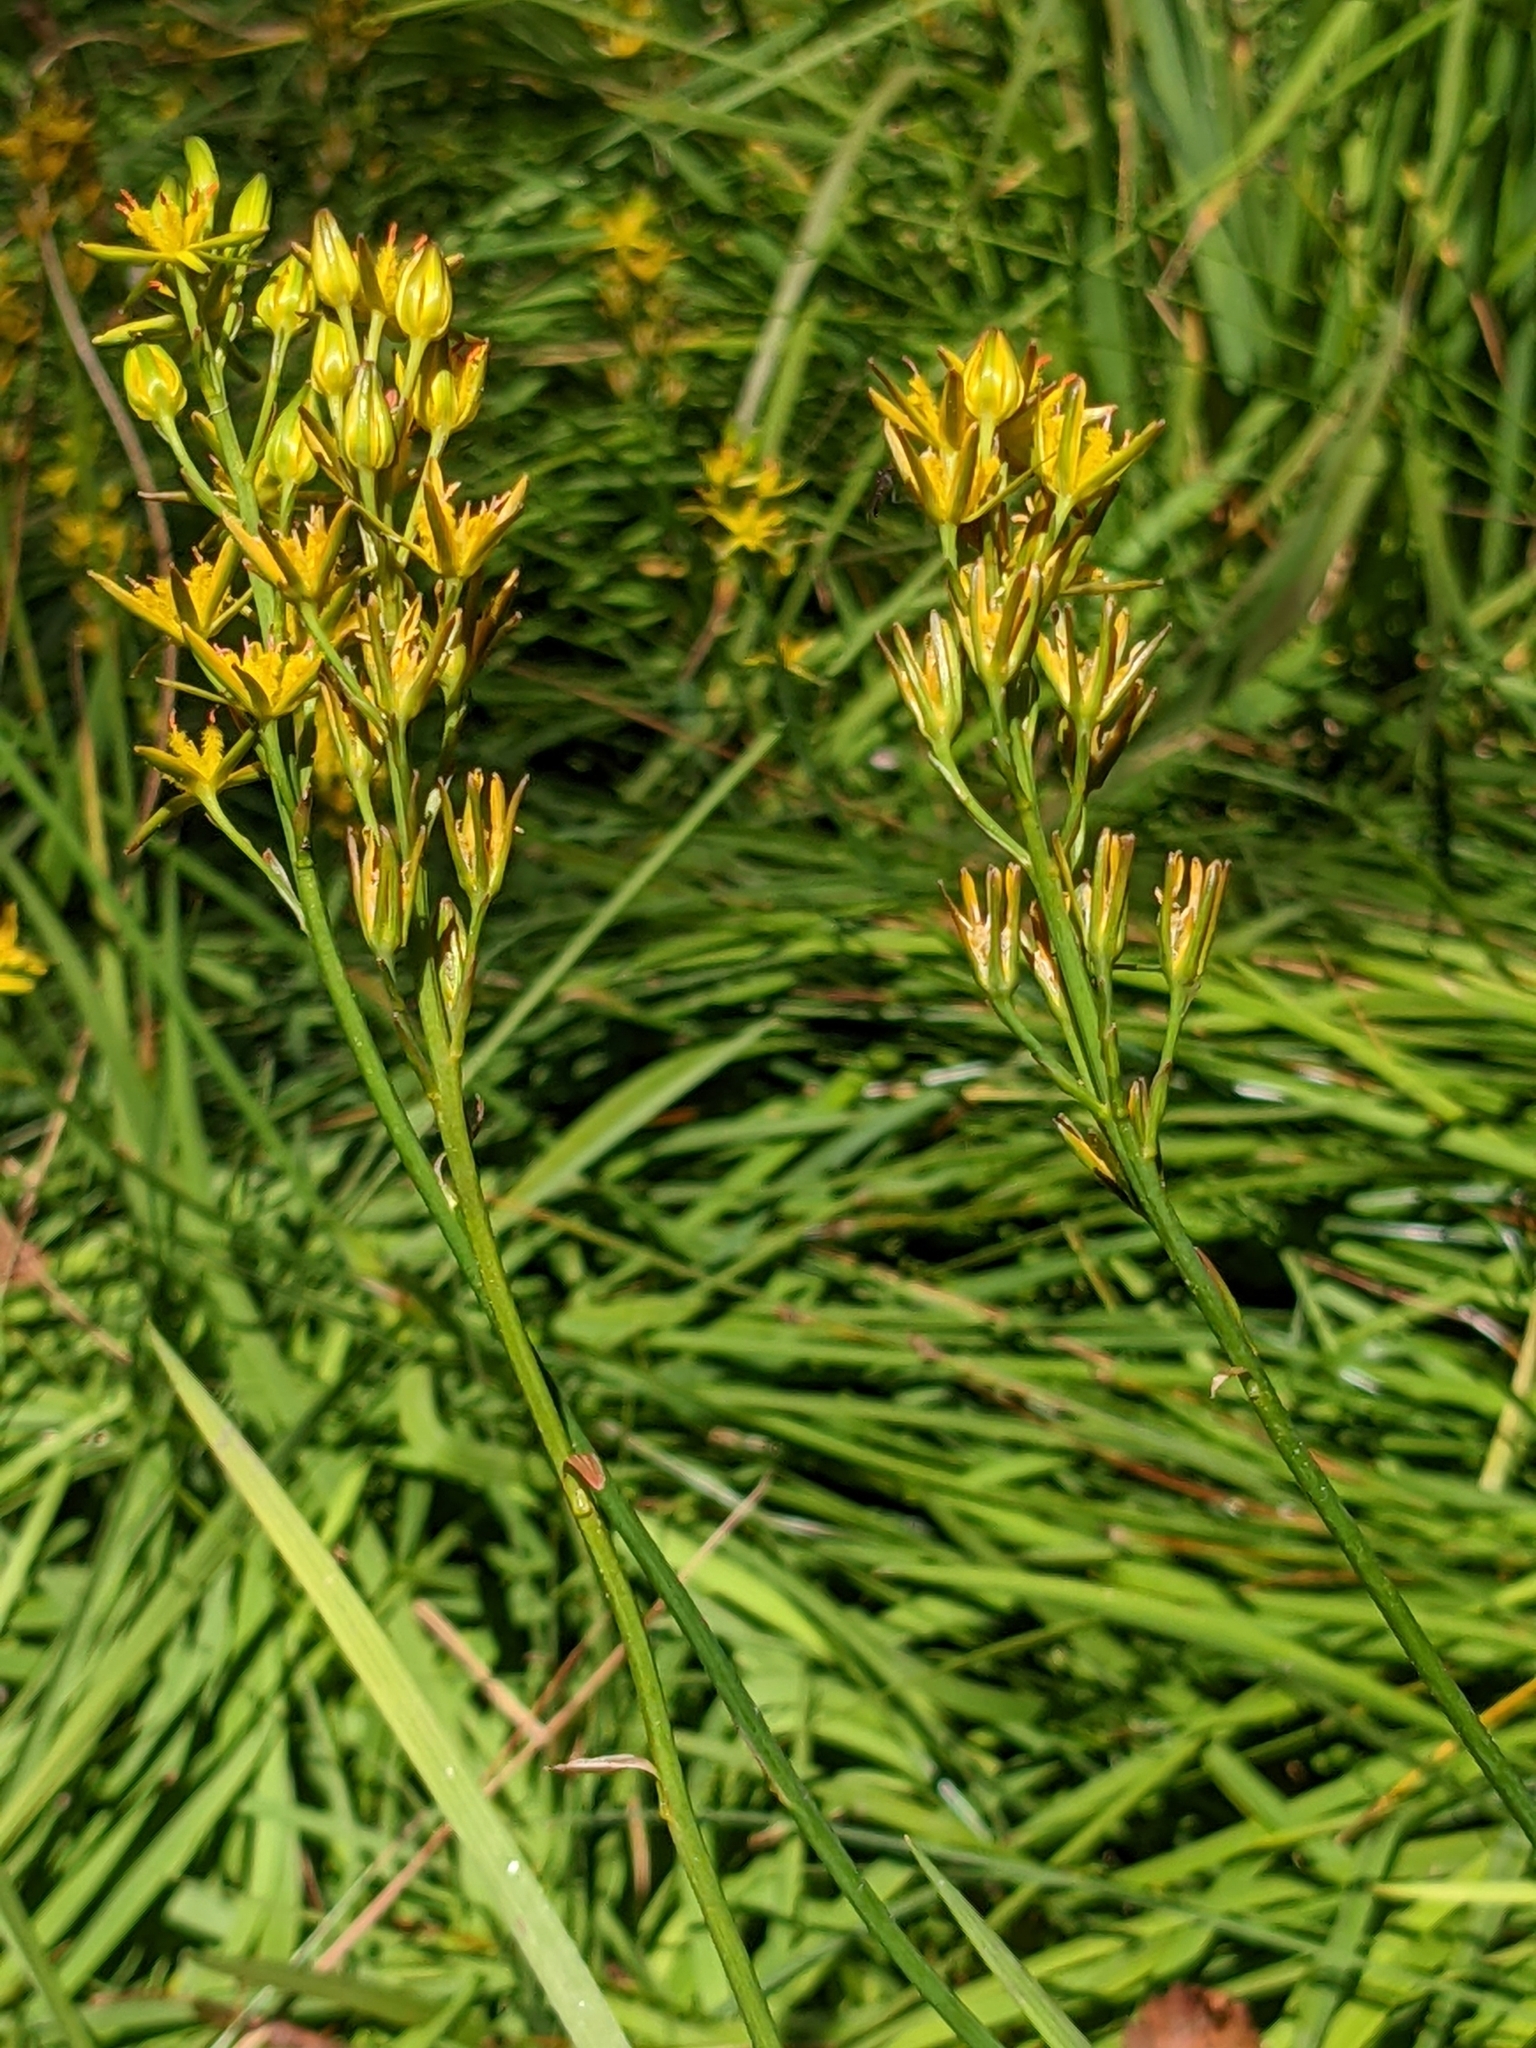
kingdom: Plantae
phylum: Tracheophyta
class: Liliopsida
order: Dioscoreales
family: Nartheciaceae
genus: Narthecium
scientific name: Narthecium ossifragum
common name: Bog asphodel
